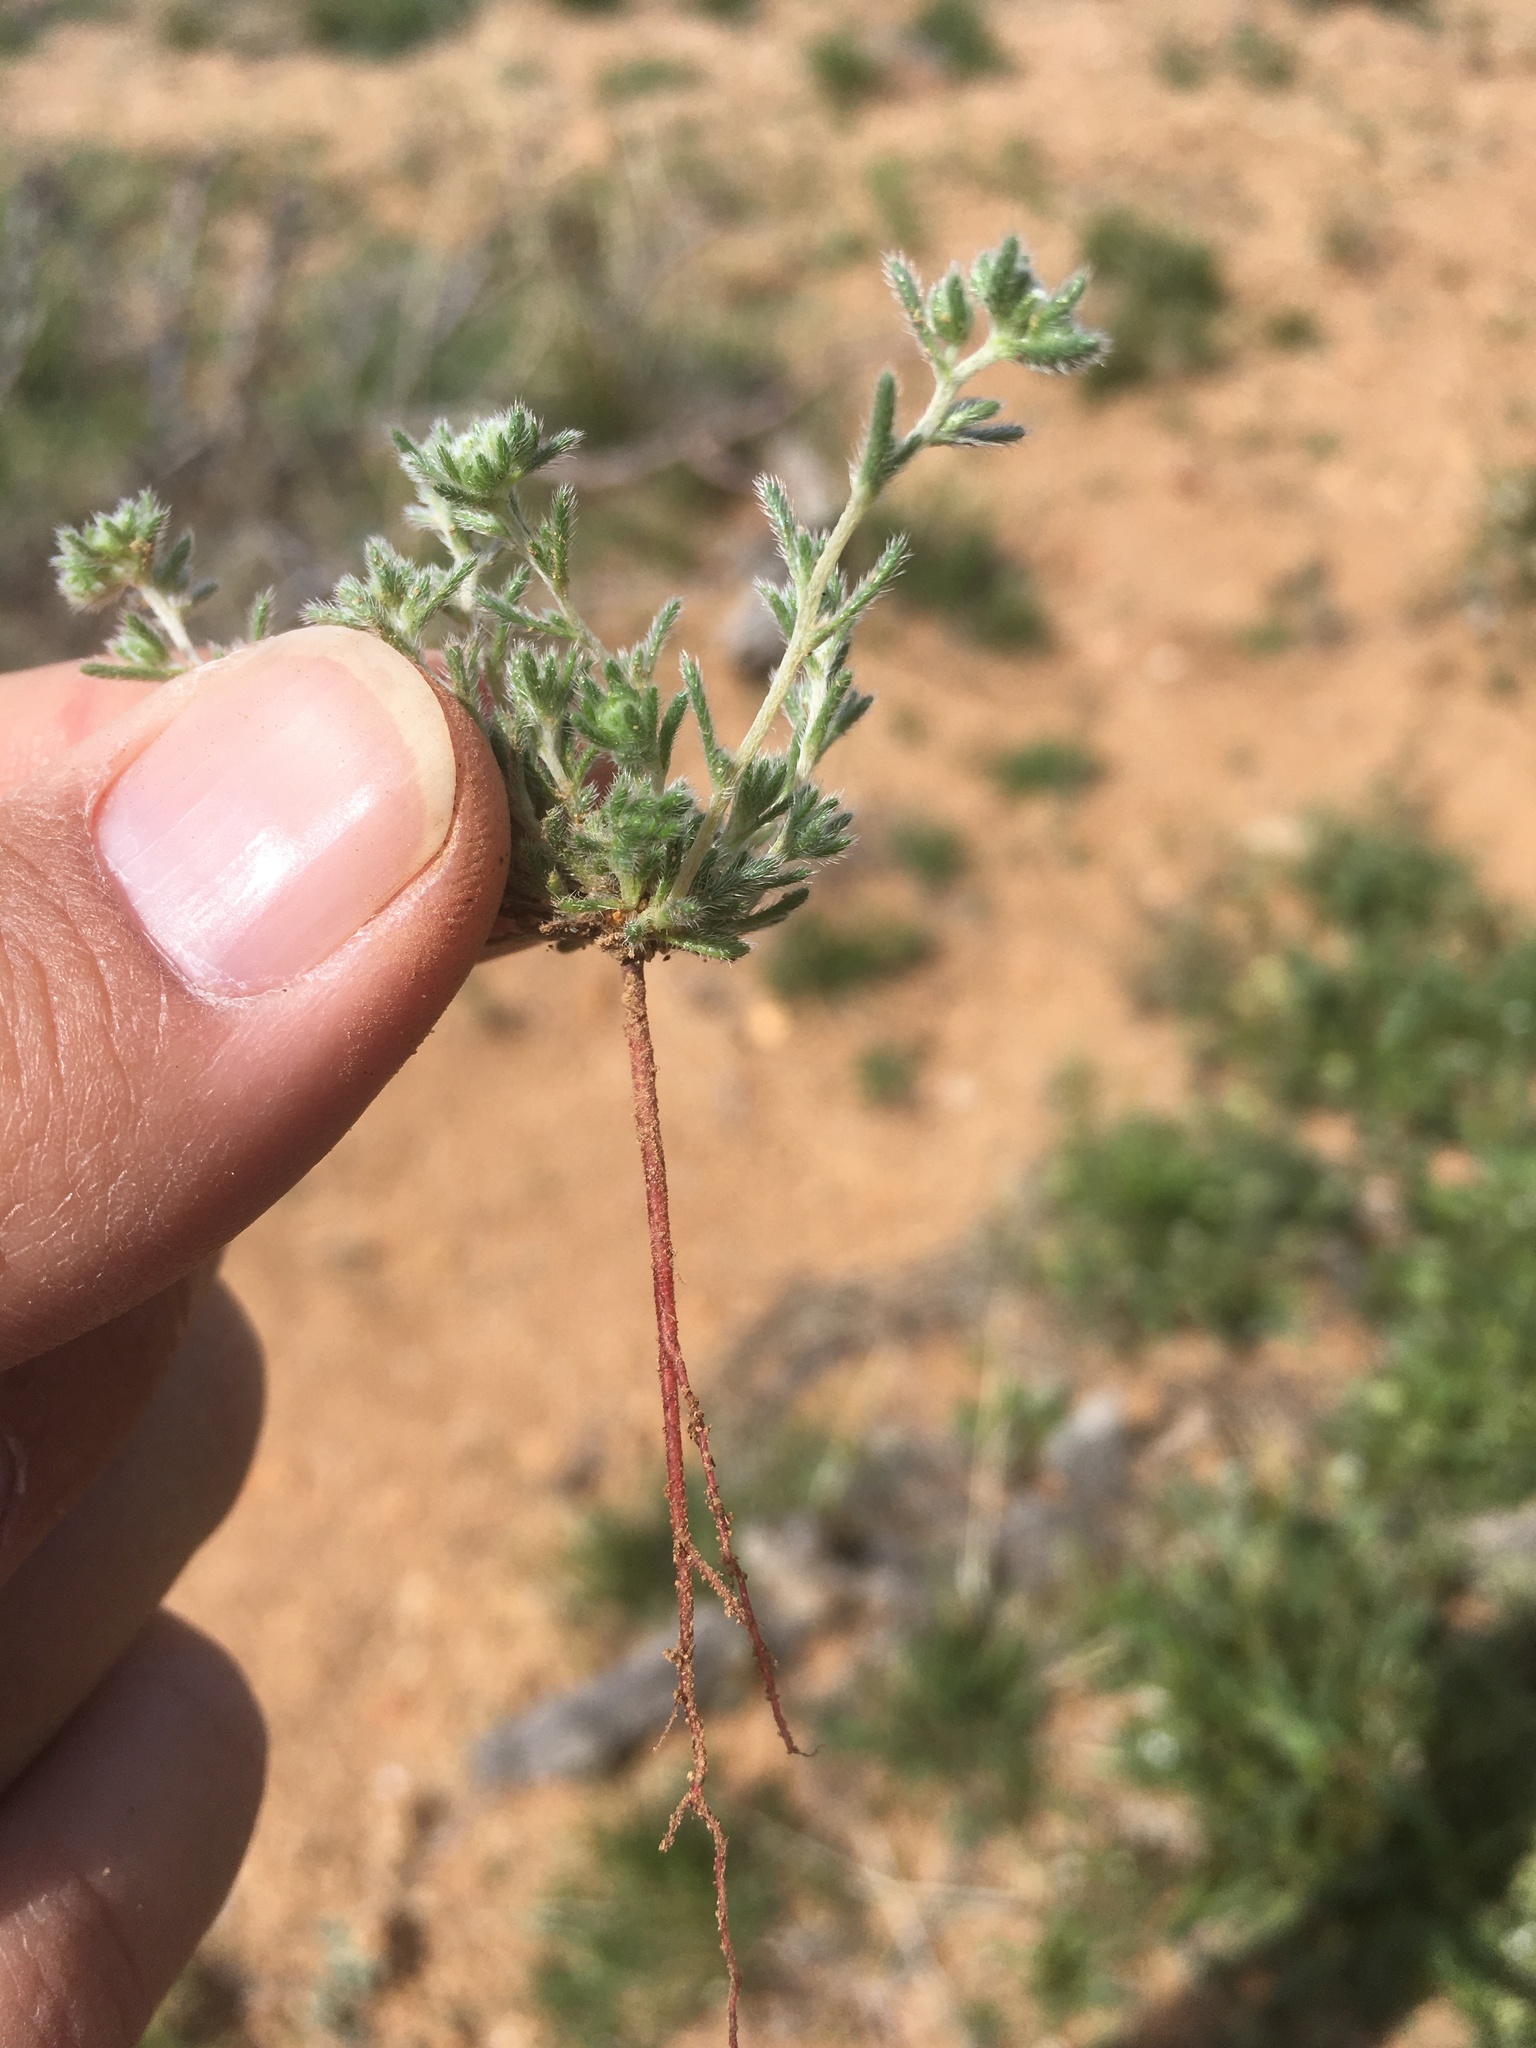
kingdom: Plantae
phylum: Tracheophyta
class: Magnoliopsida
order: Boraginales
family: Boraginaceae
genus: Eremocarya
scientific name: Eremocarya micrantha
